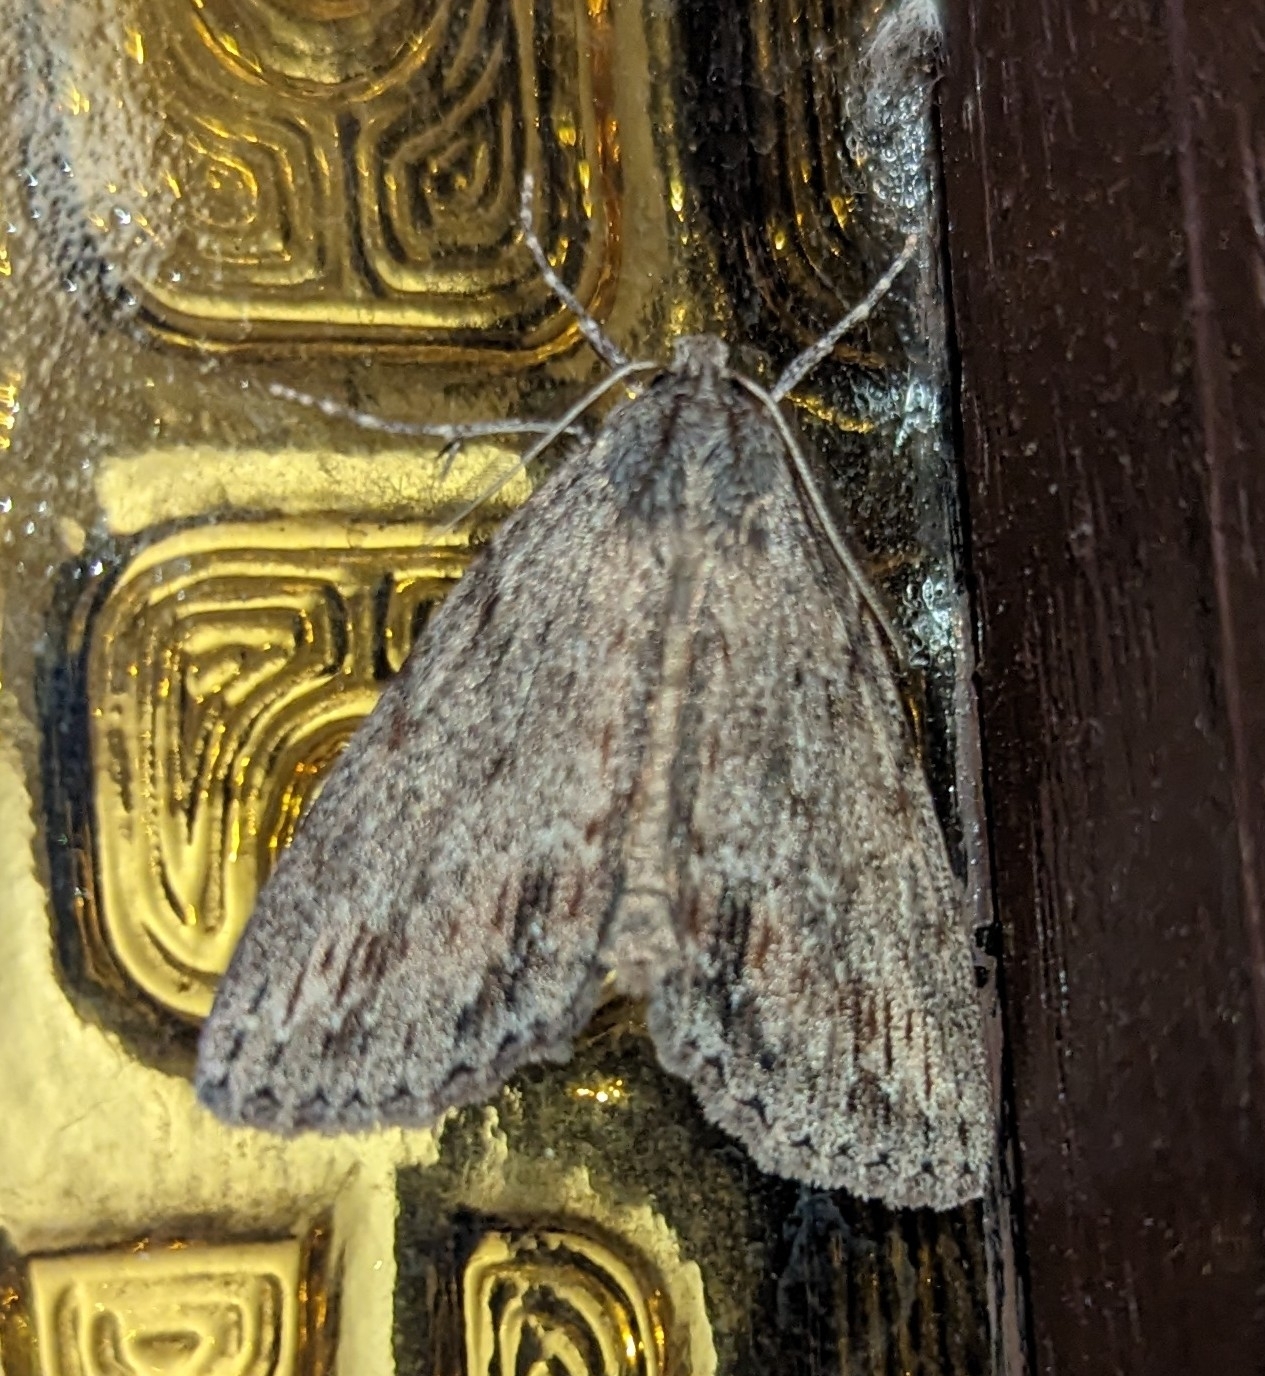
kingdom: Animalia
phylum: Arthropoda
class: Insecta
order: Lepidoptera
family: Geometridae
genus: Chlenias
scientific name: Chlenias banksiaria
